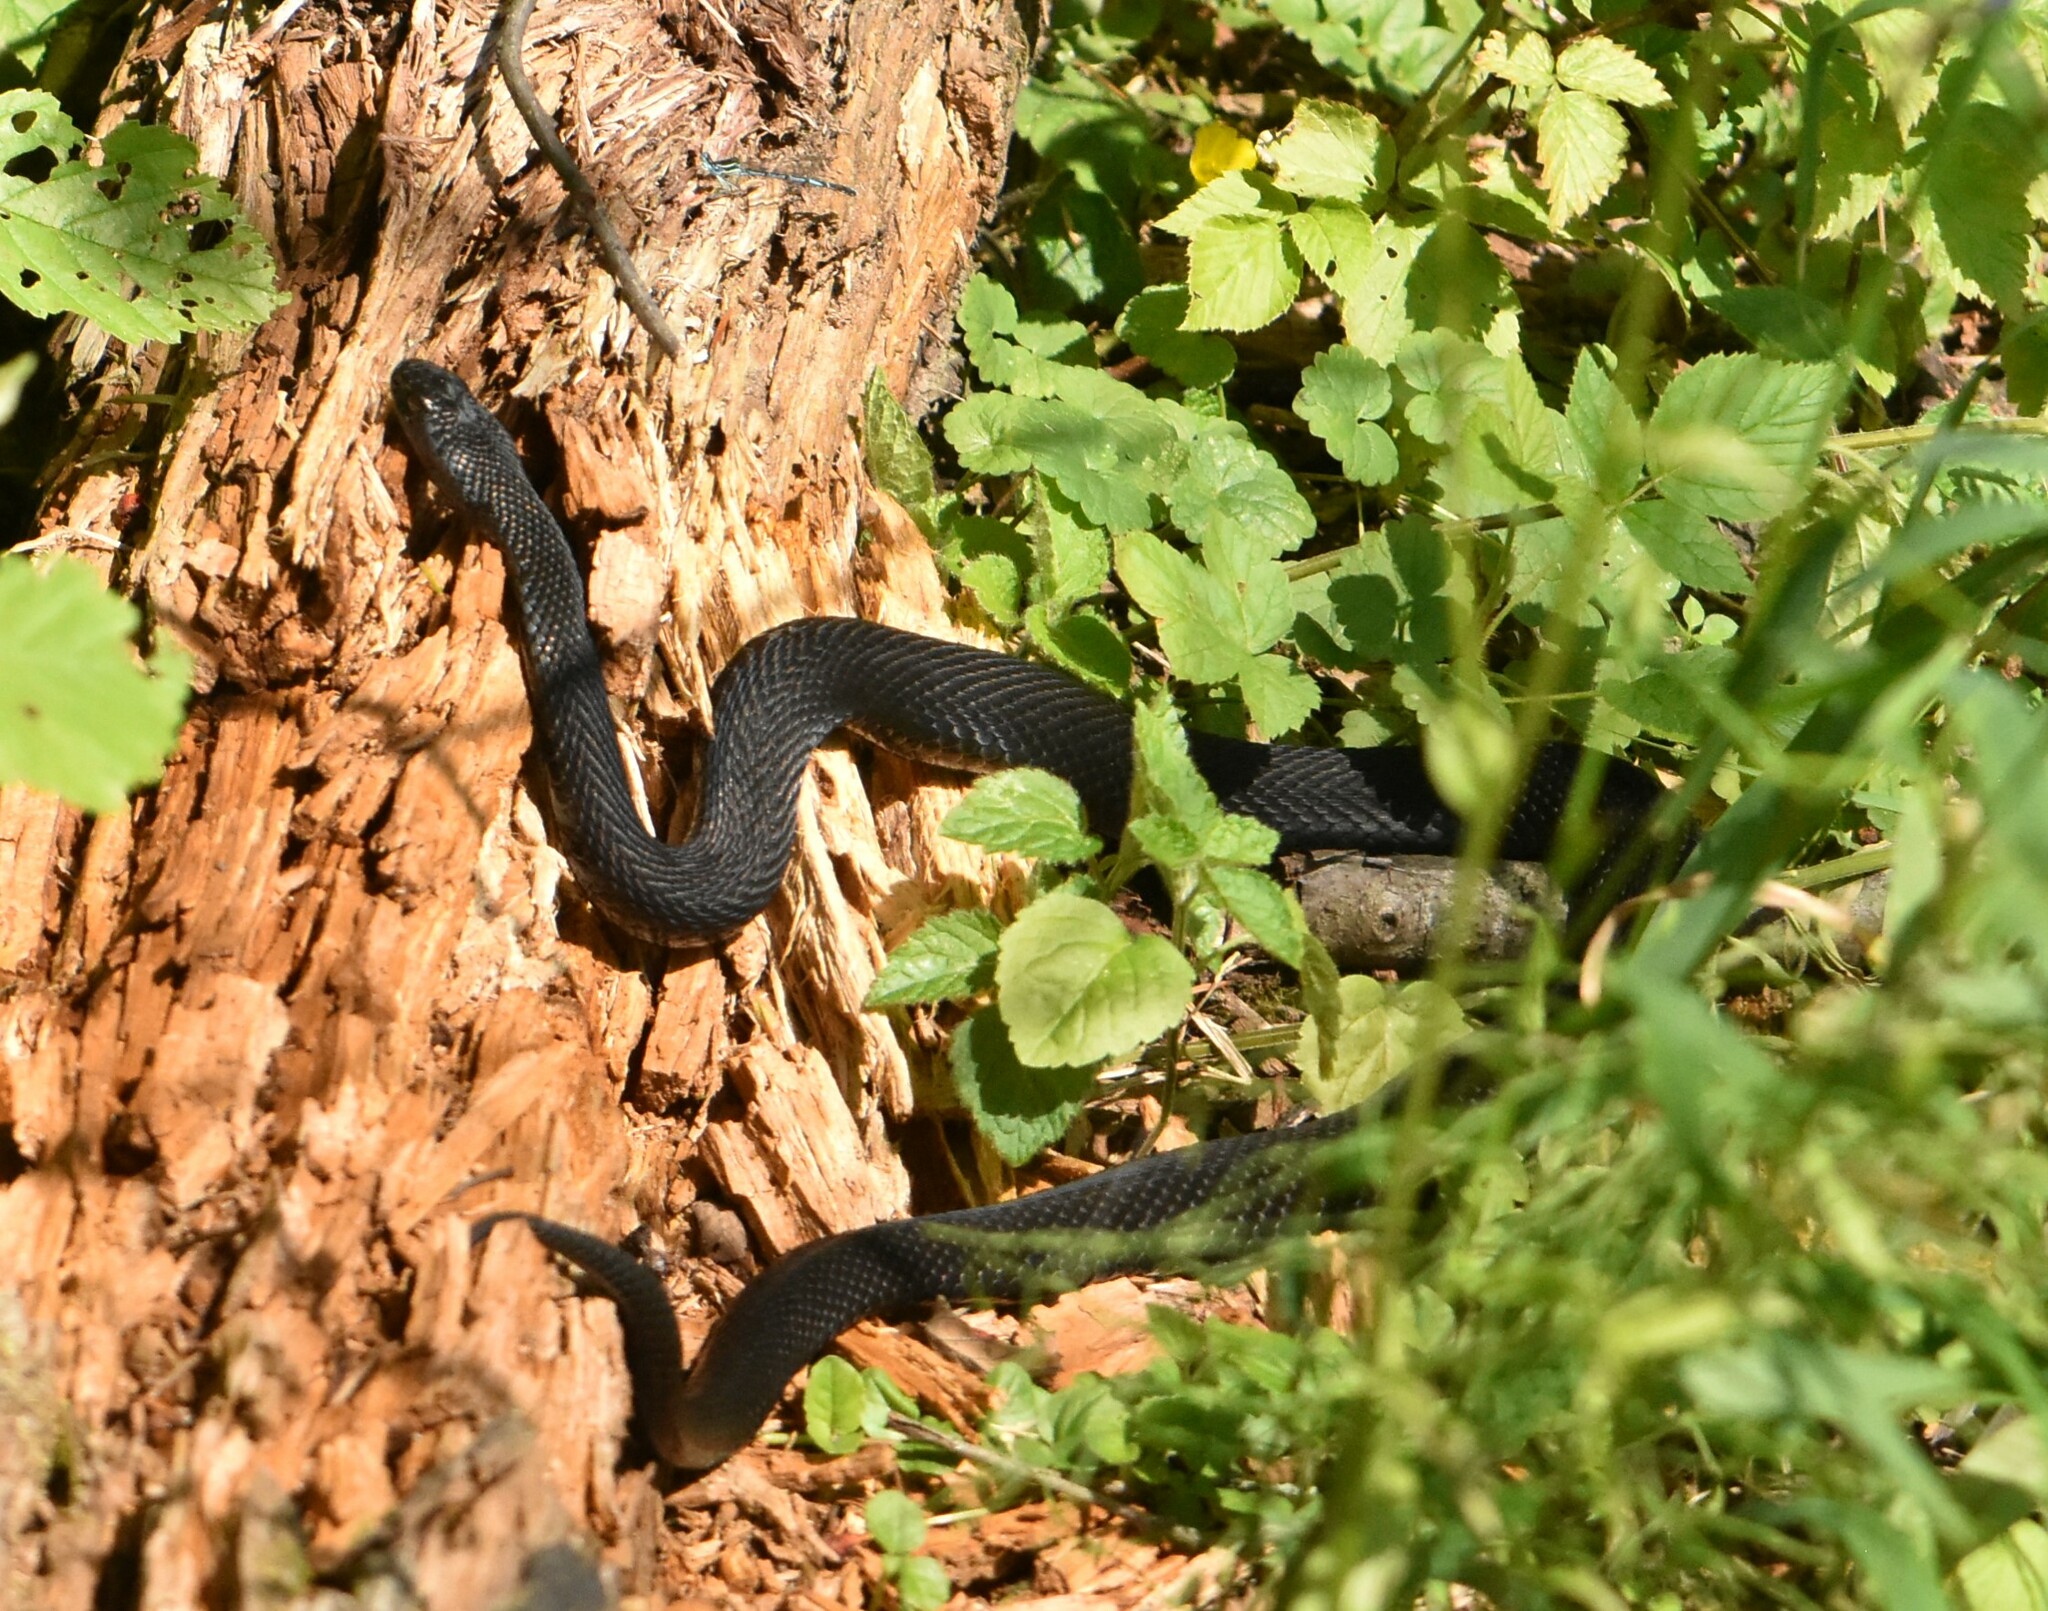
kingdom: Animalia
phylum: Chordata
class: Squamata
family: Viperidae
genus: Vipera
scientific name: Vipera berus
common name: Adder
